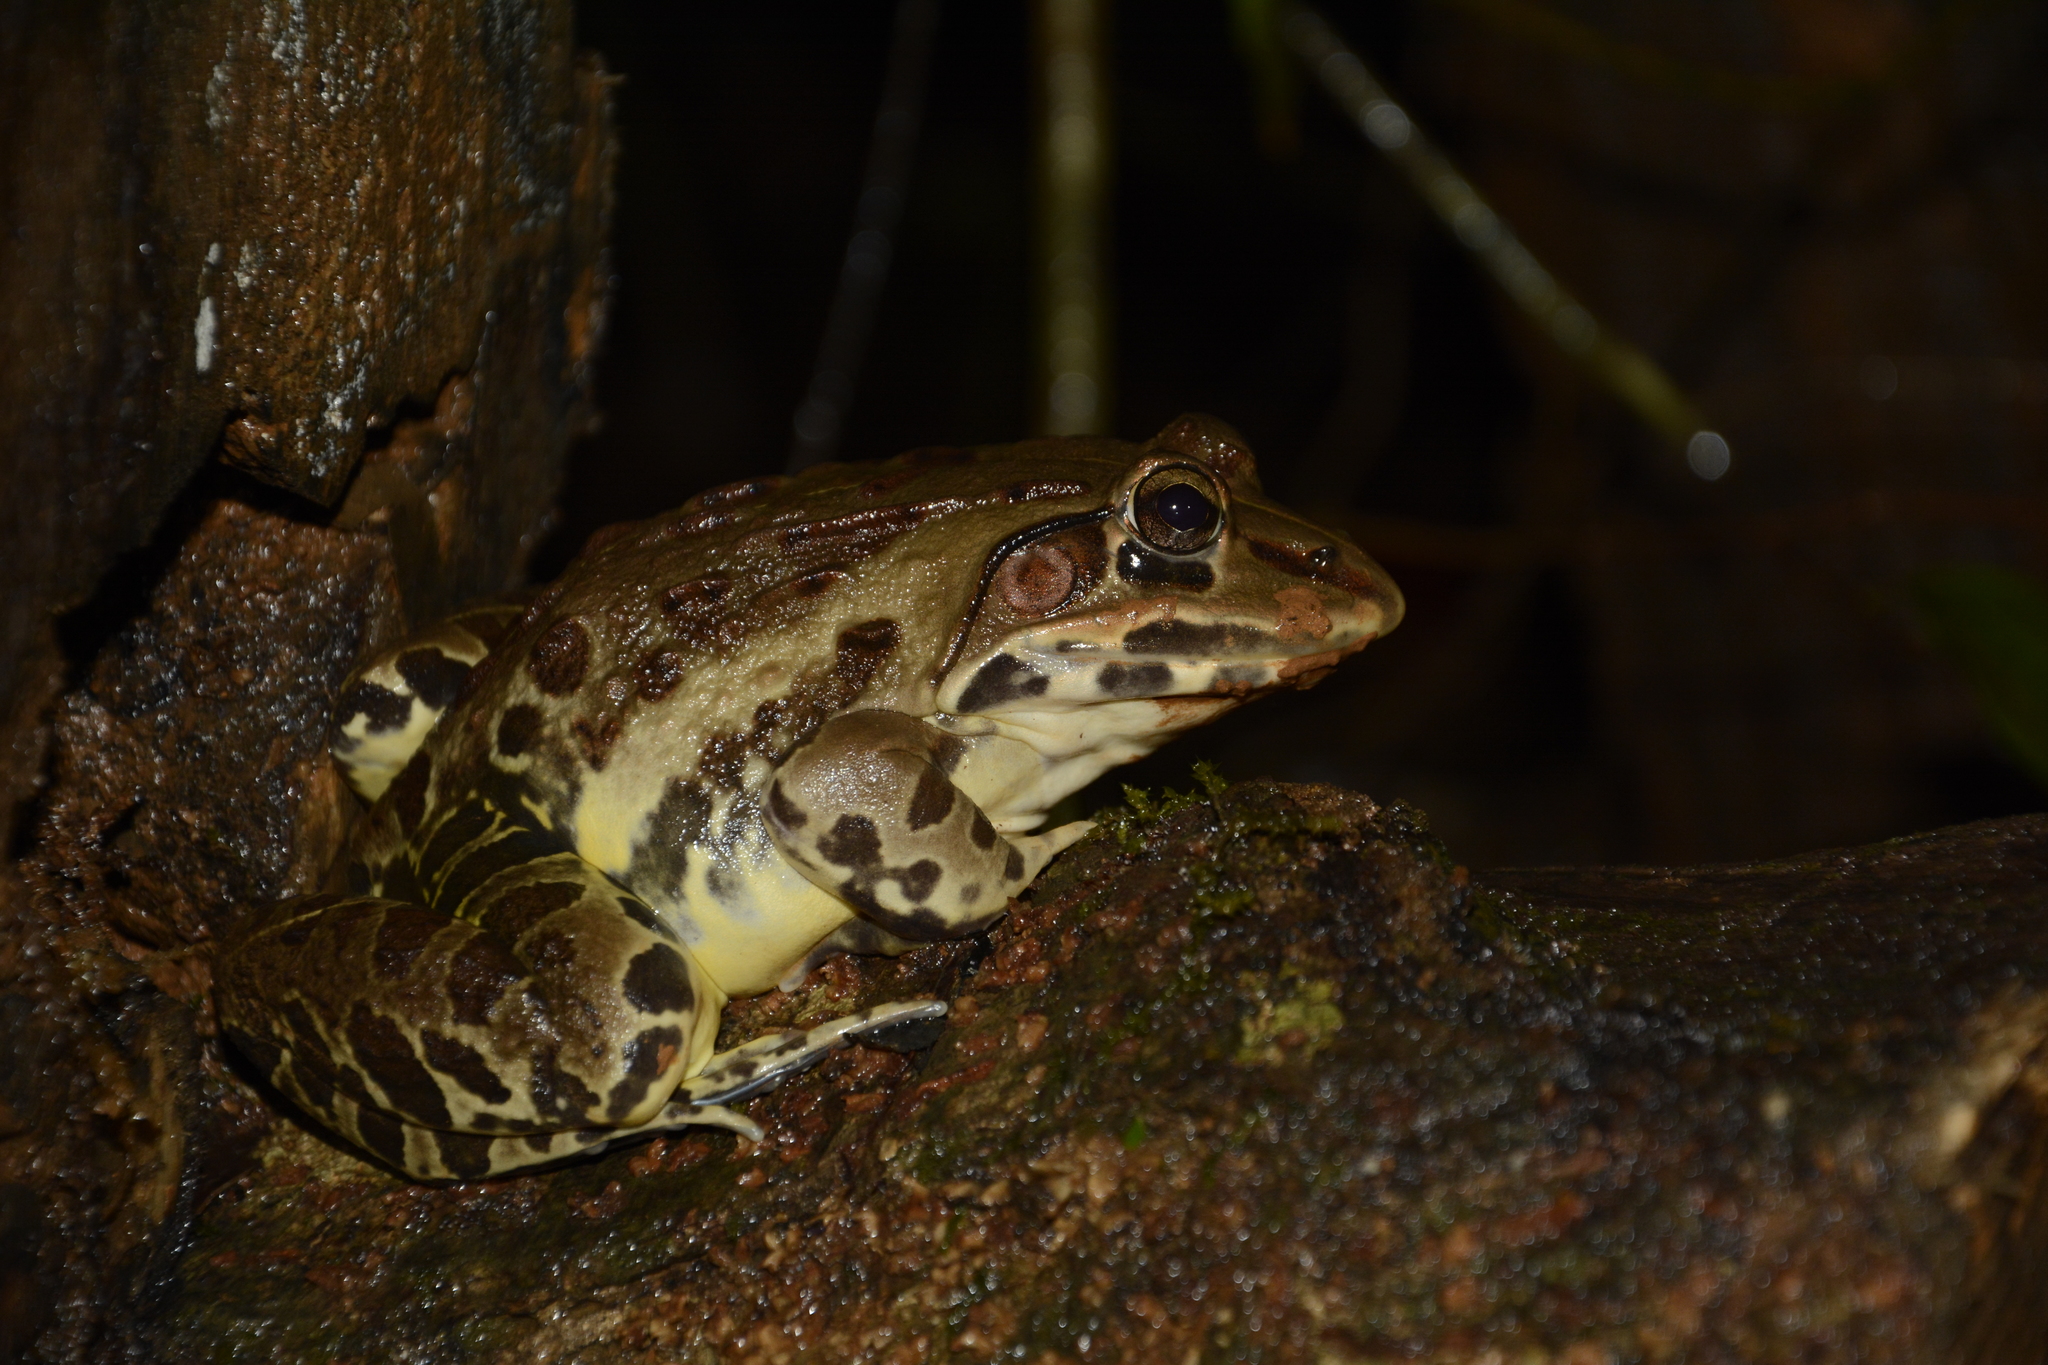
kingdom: Animalia
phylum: Chordata
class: Amphibia
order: Anura
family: Dicroglossidae
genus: Hoplobatrachus
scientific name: Hoplobatrachus tigerinus
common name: Indian bullfrog
